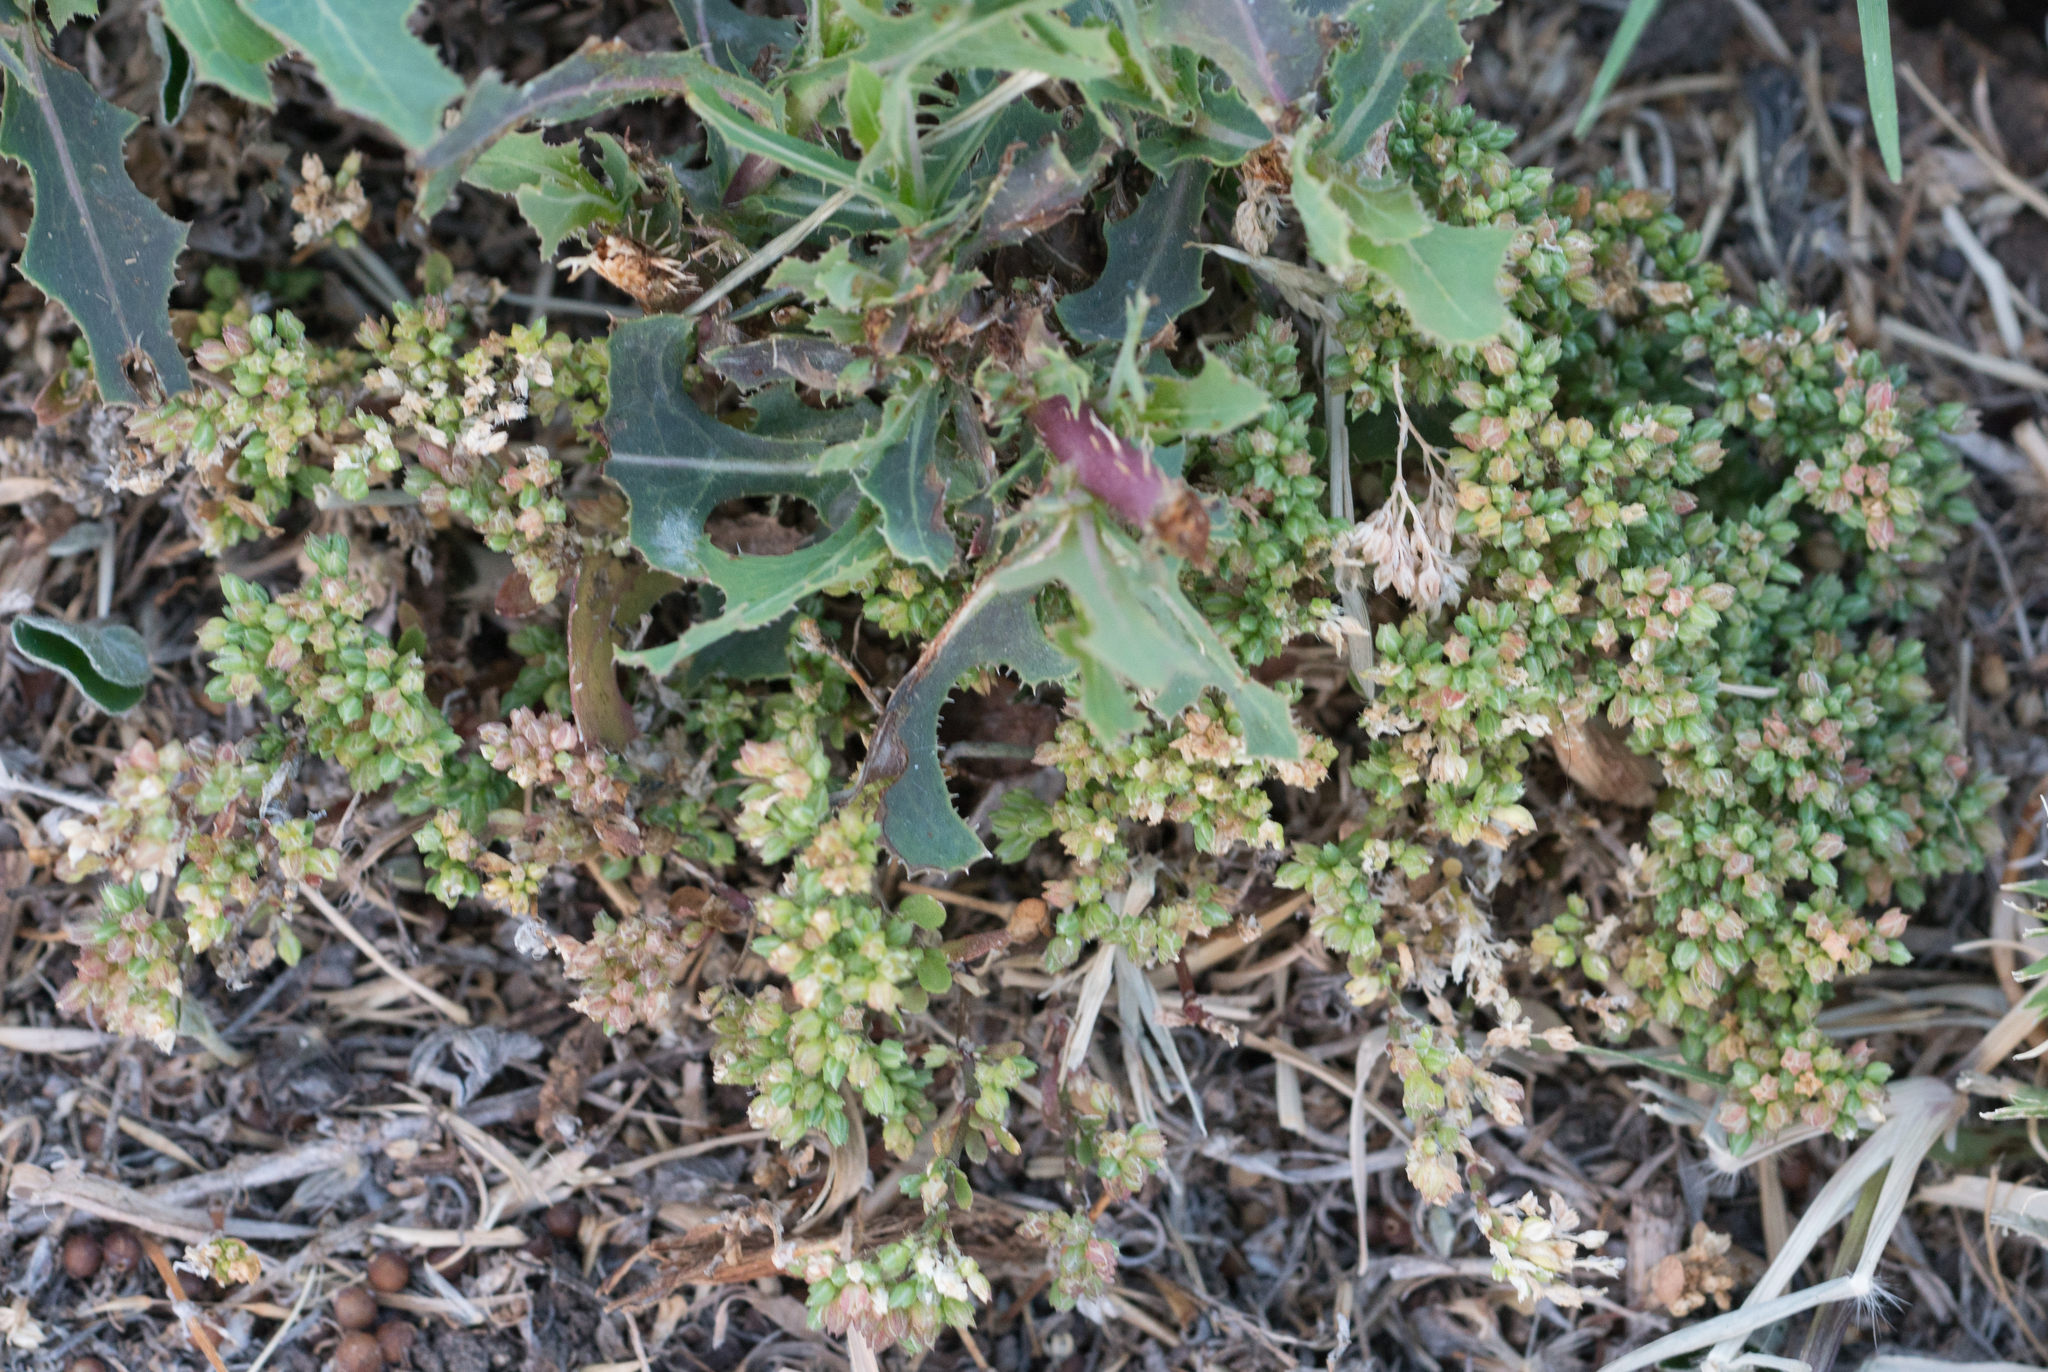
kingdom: Plantae
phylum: Tracheophyta
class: Magnoliopsida
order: Caryophyllales
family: Caryophyllaceae
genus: Polycarpon
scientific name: Polycarpon tetraphyllum
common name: Four-leaved all-seed
